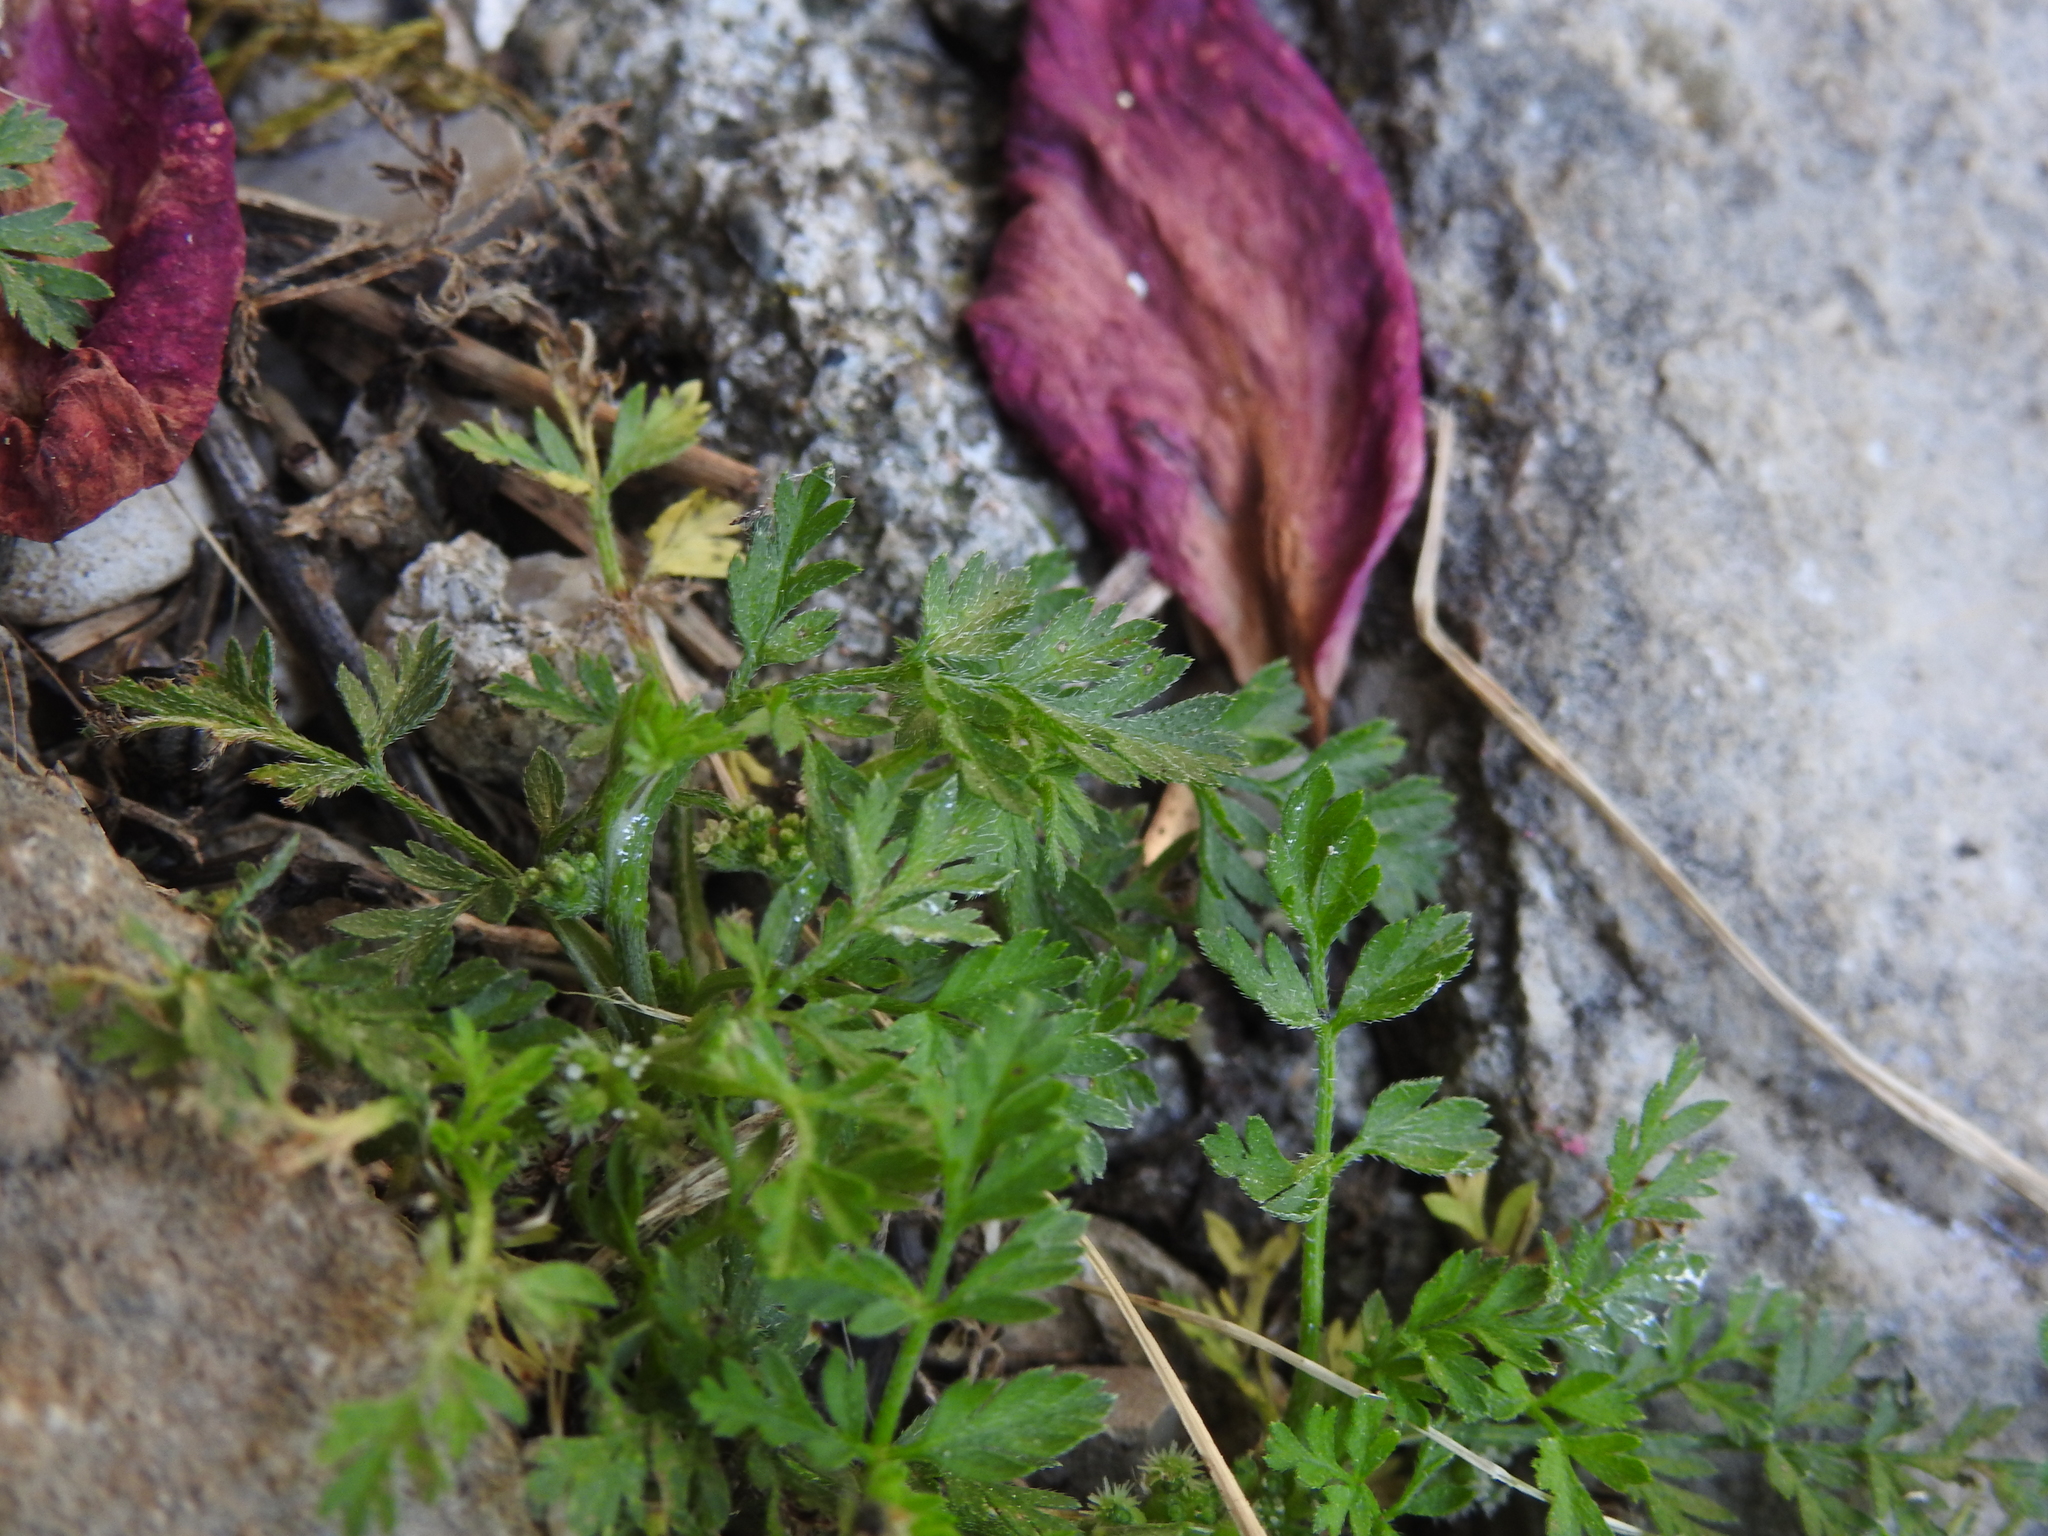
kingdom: Plantae
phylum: Tracheophyta
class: Magnoliopsida
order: Apiales
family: Apiaceae
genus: Torilis
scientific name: Torilis nodosa
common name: Knotted hedge-parsley
